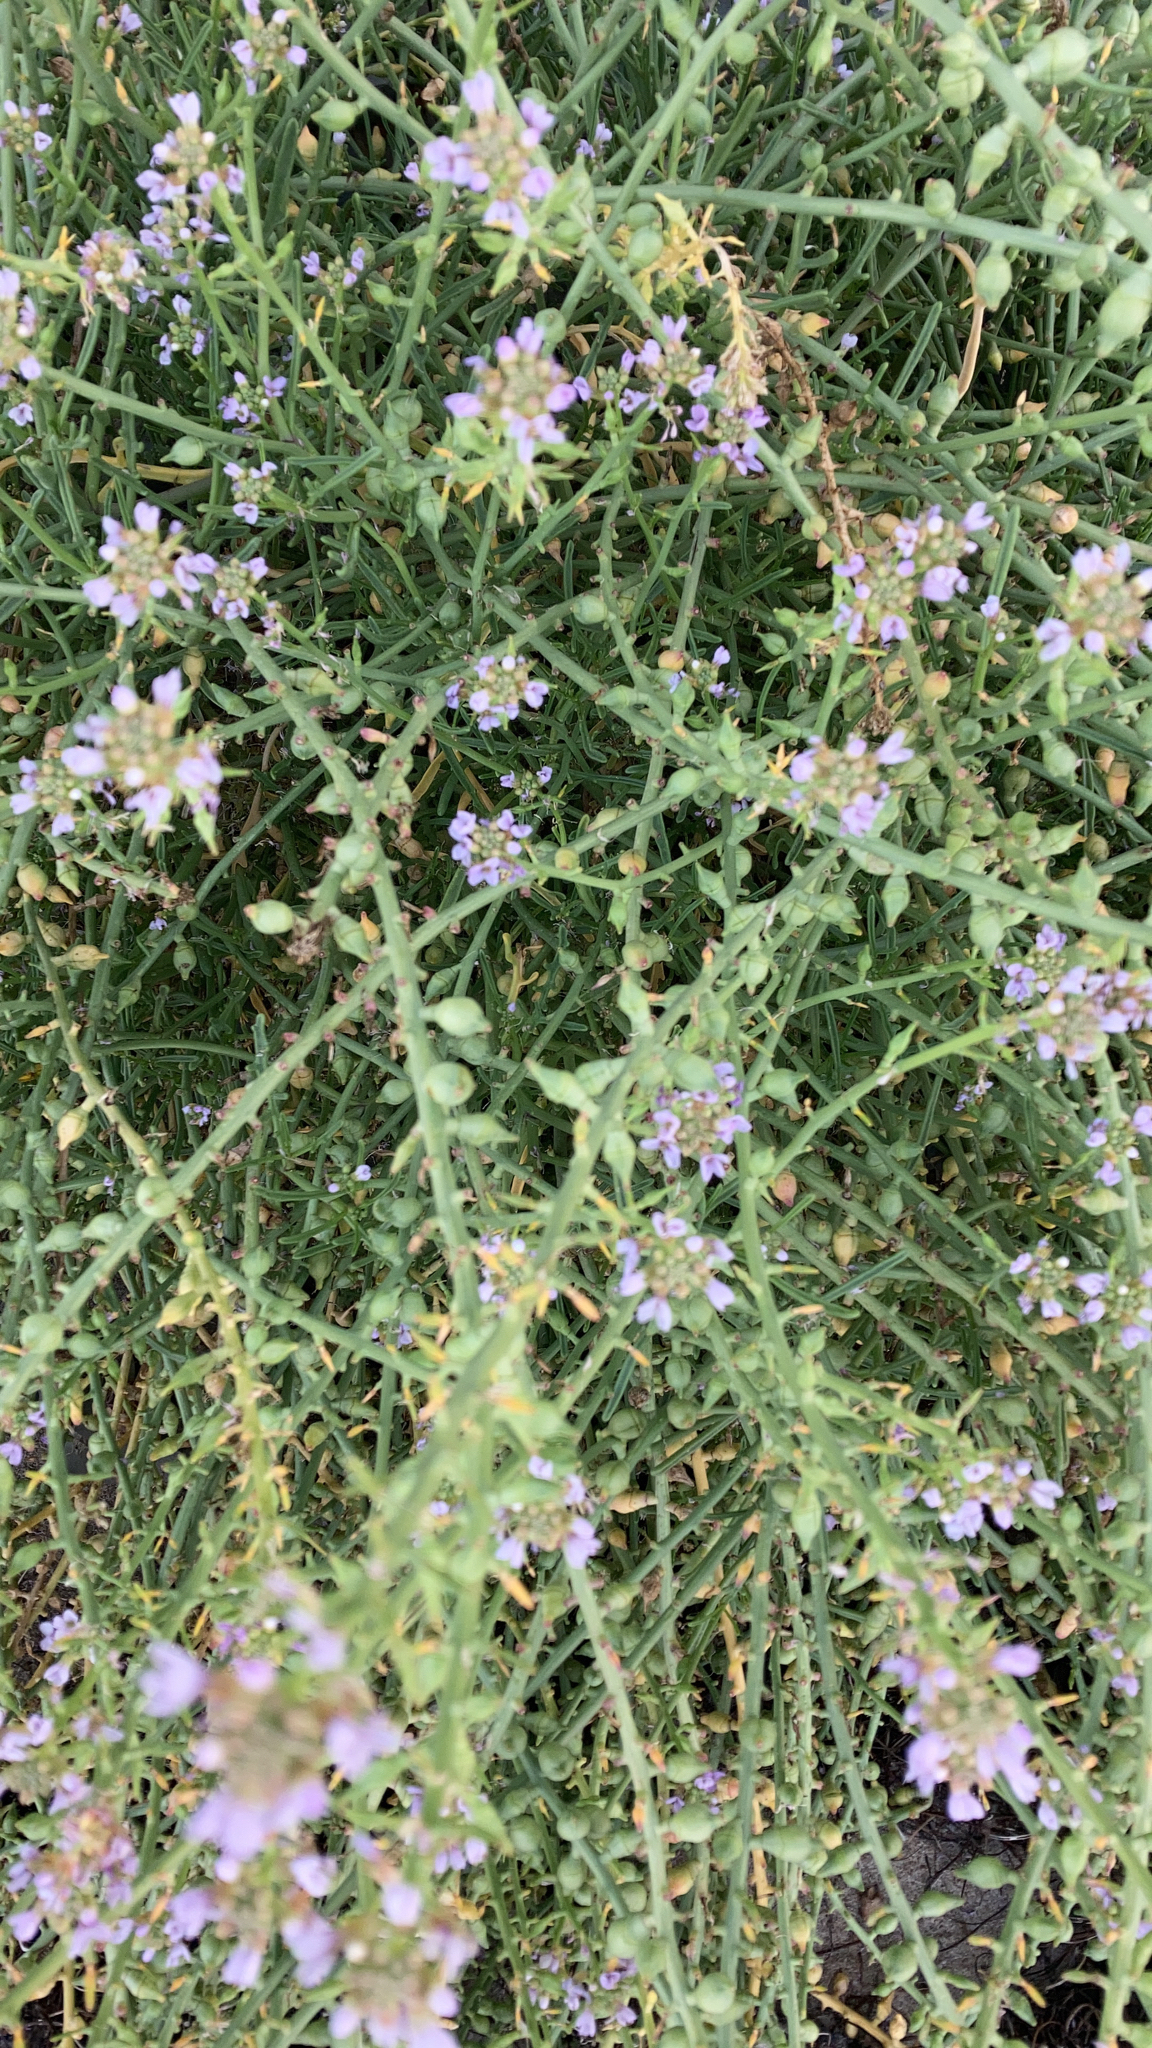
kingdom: Plantae
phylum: Tracheophyta
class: Magnoliopsida
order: Brassicales
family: Brassicaceae
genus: Cakile
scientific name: Cakile maritima
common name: Sea rocket
